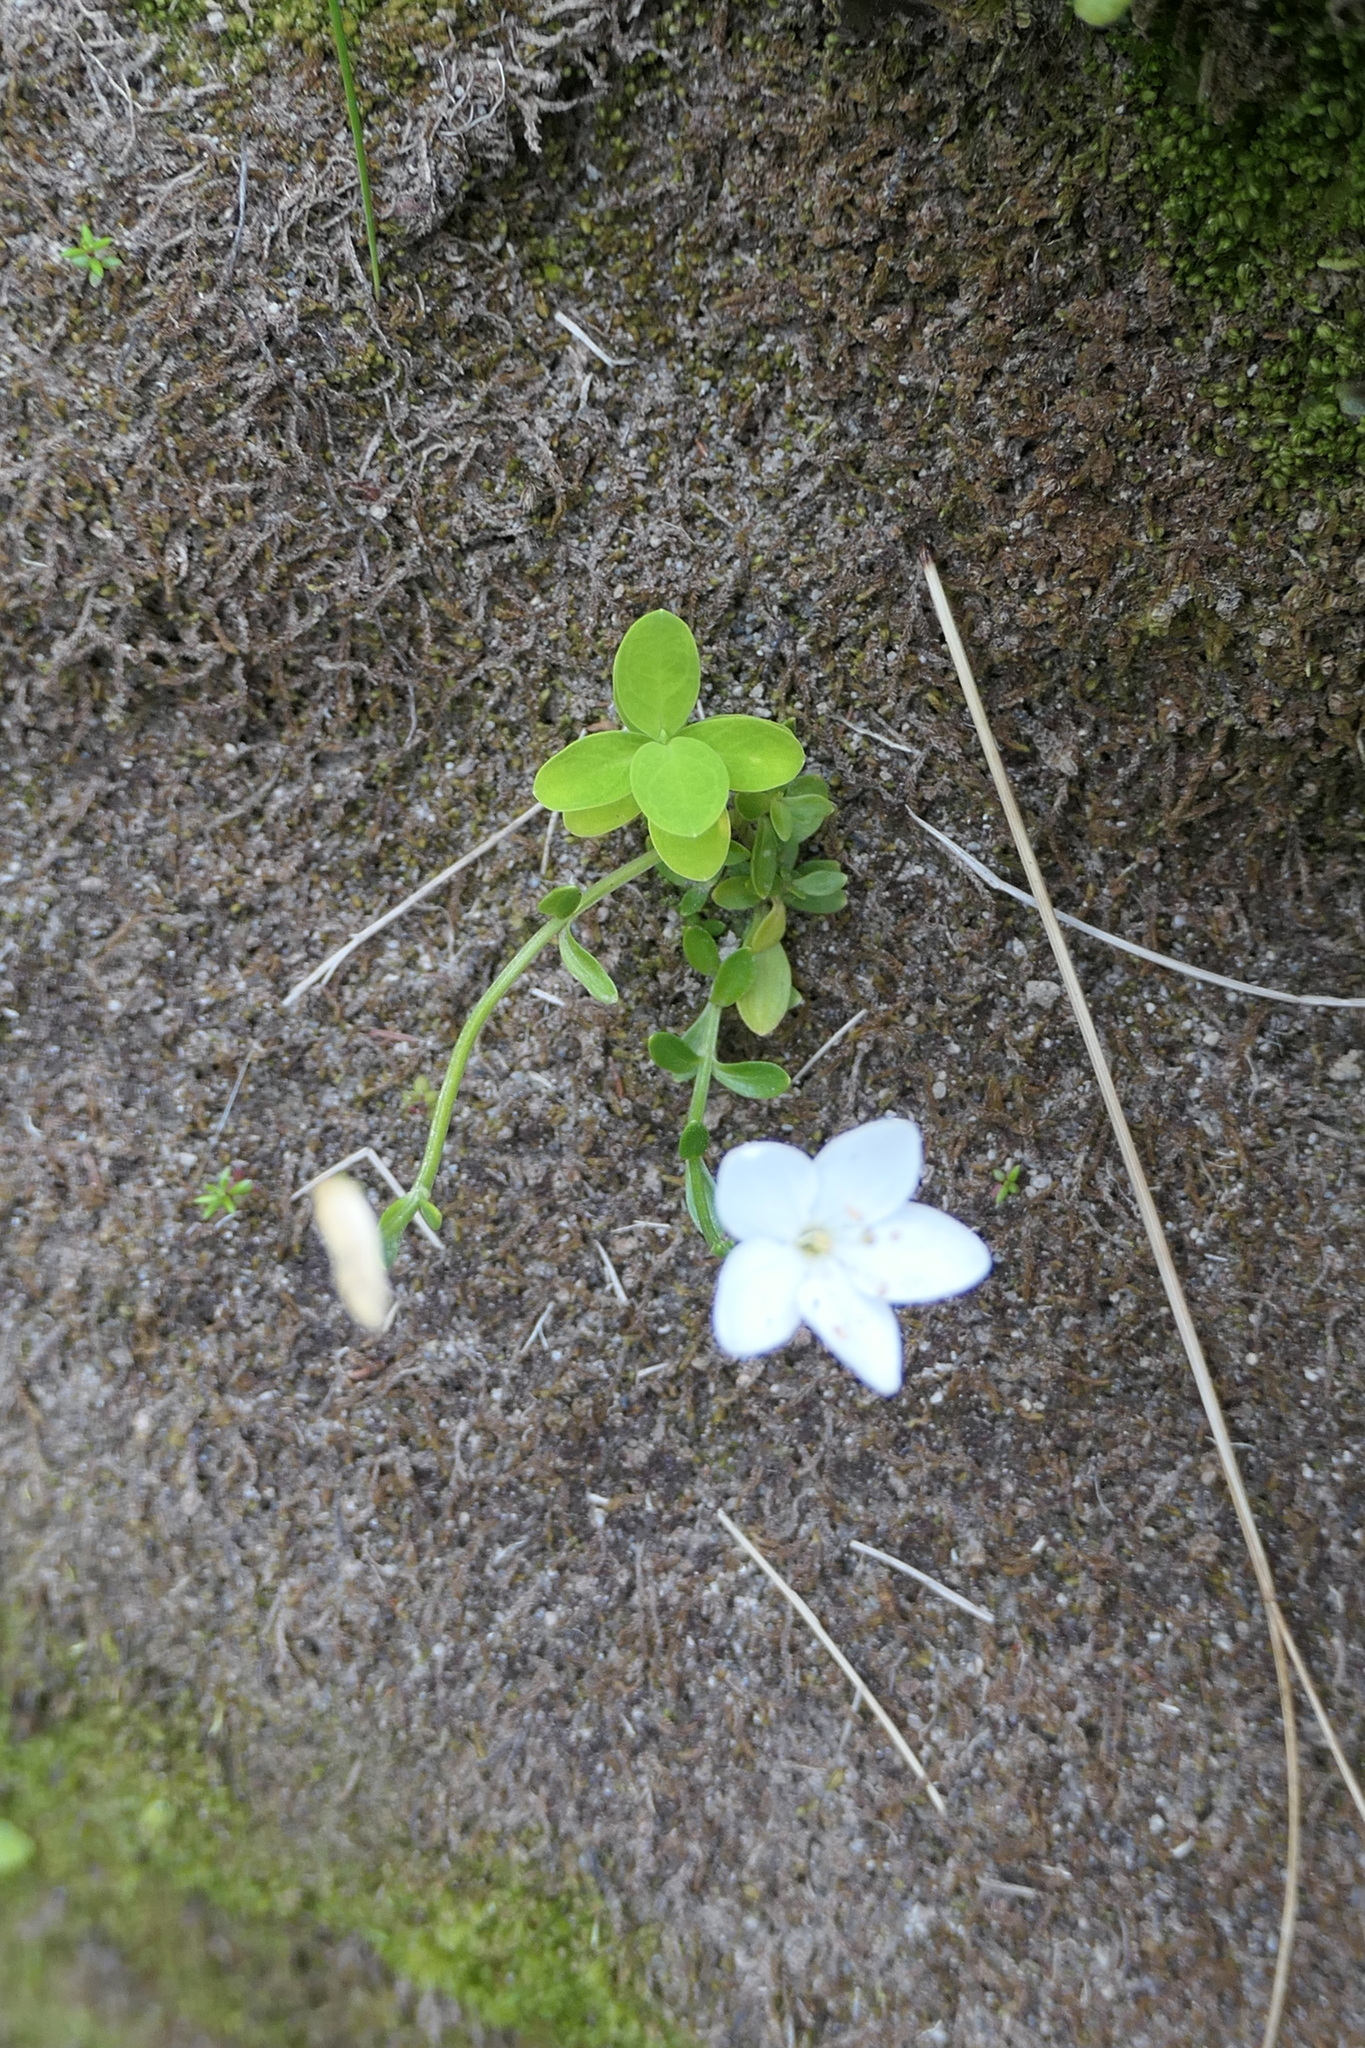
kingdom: Plantae
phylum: Tracheophyta
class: Magnoliopsida
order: Gentianales
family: Gentianaceae
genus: Centaurium
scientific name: Centaurium scilloides
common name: Perennial centaury
